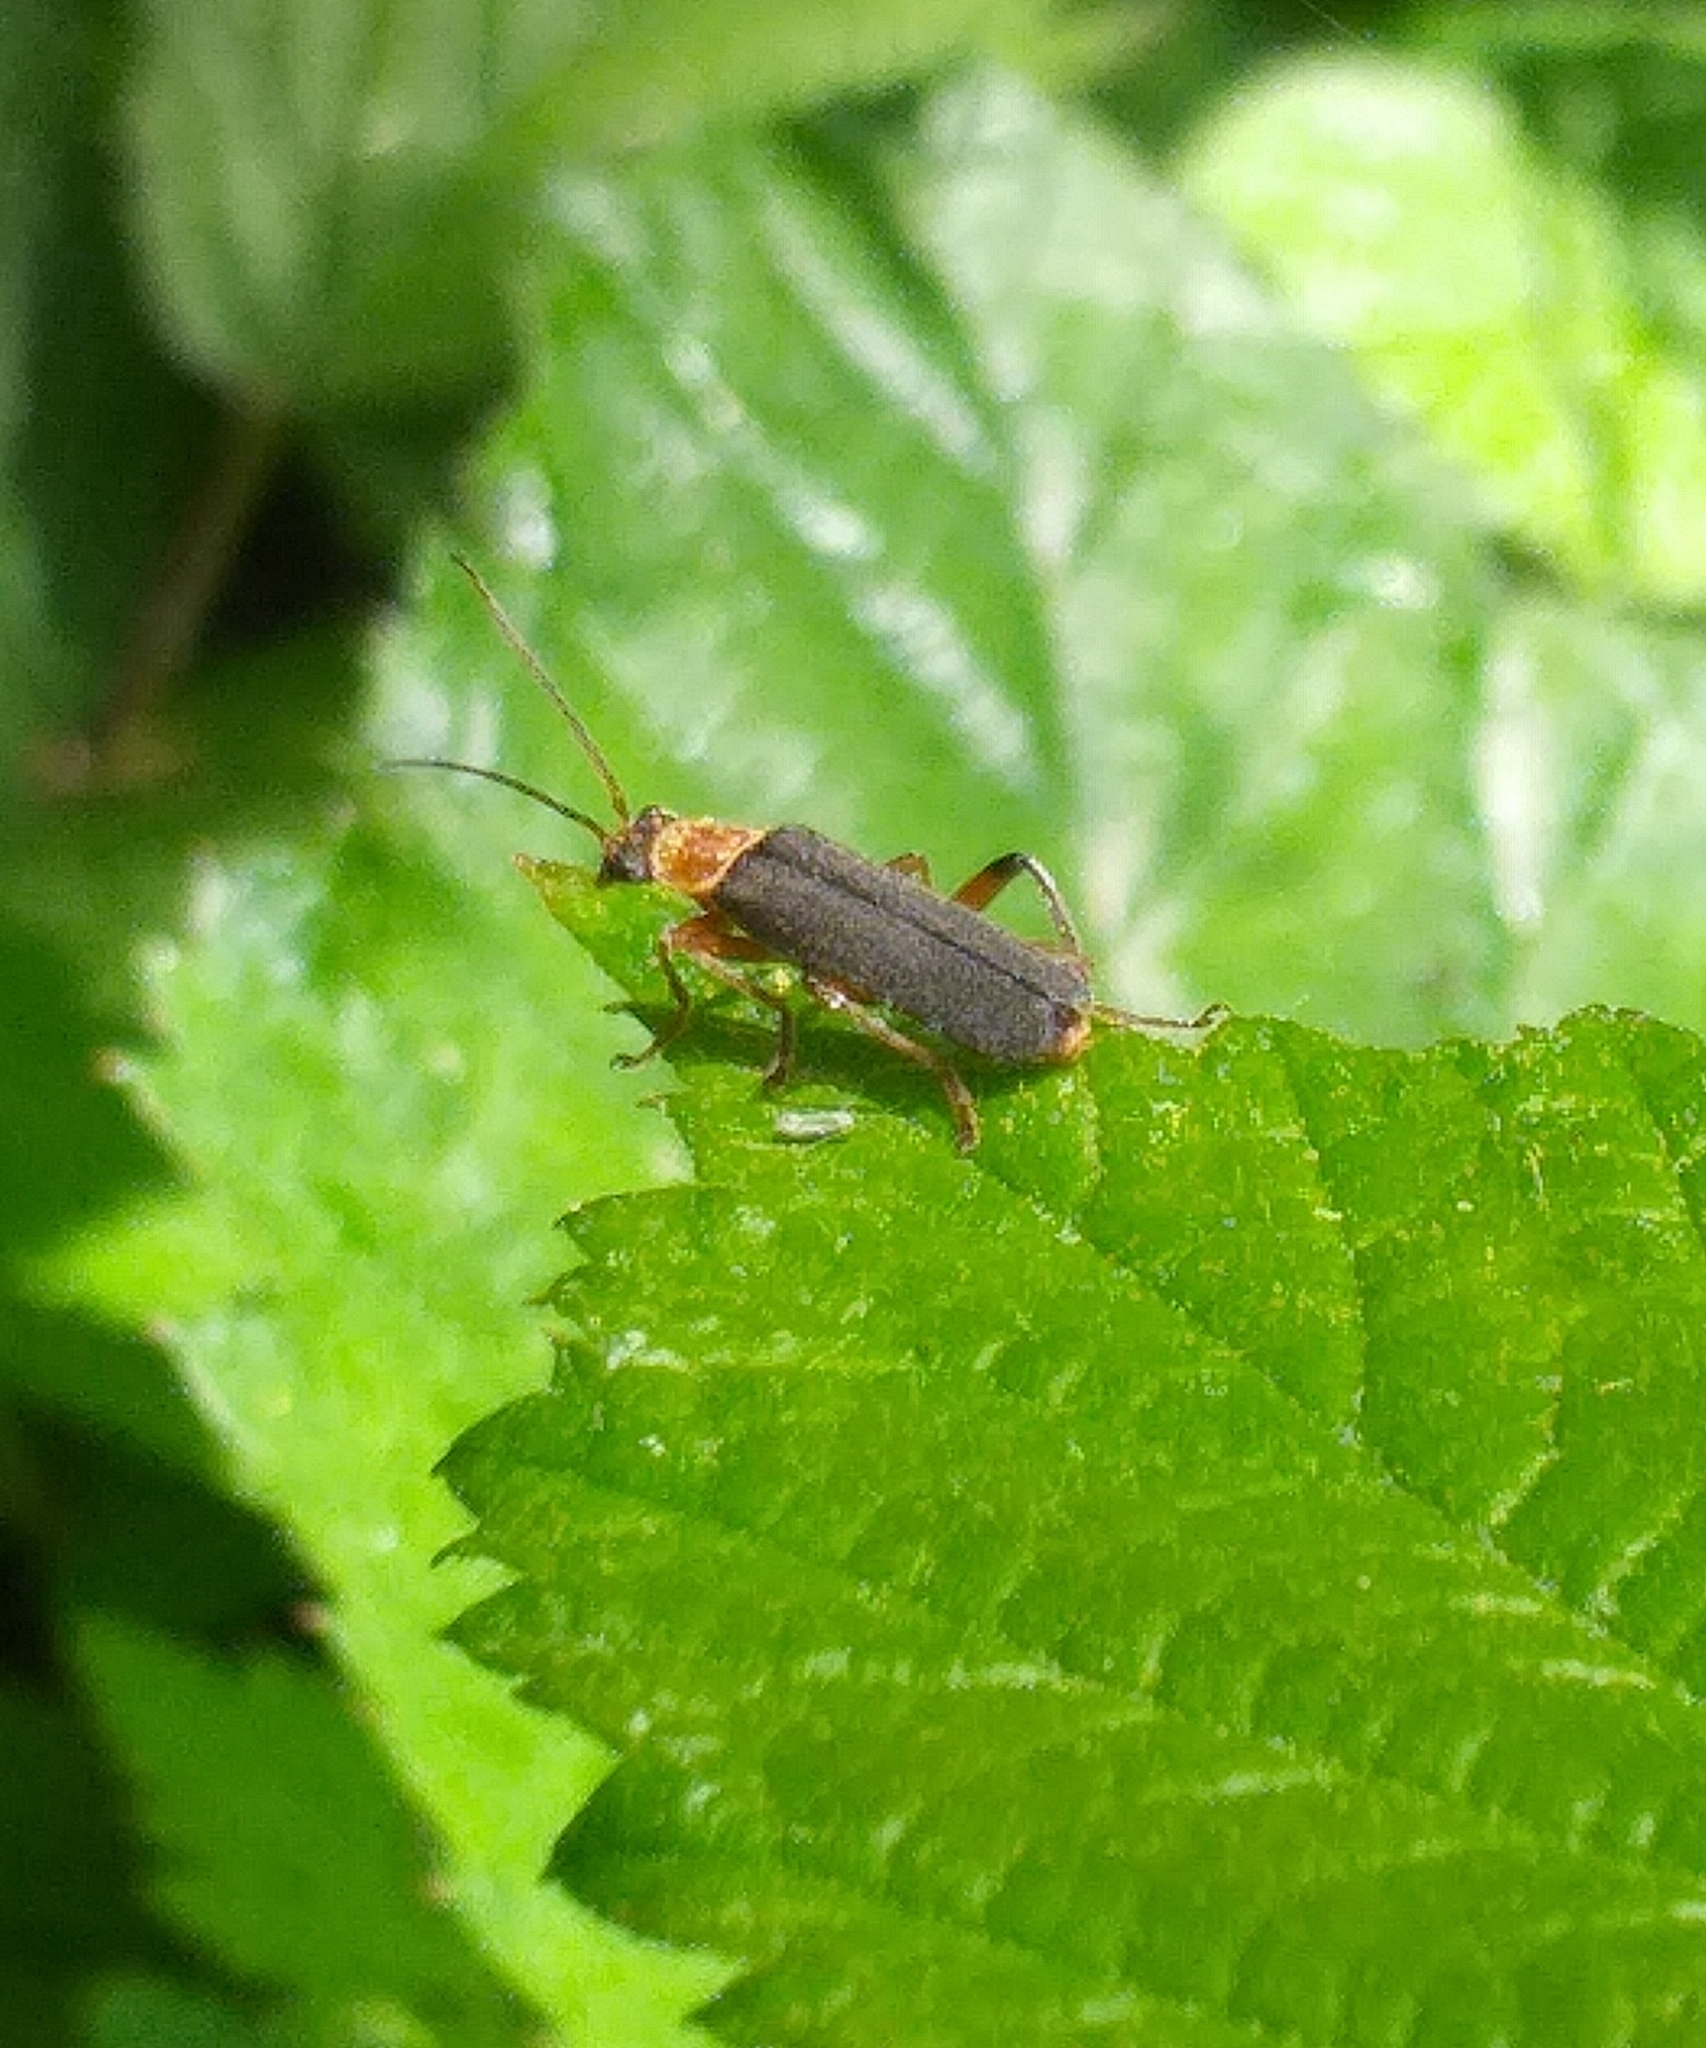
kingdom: Animalia
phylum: Arthropoda
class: Insecta
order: Coleoptera
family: Cantharidae
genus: Cantharis
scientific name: Cantharis nigricans
